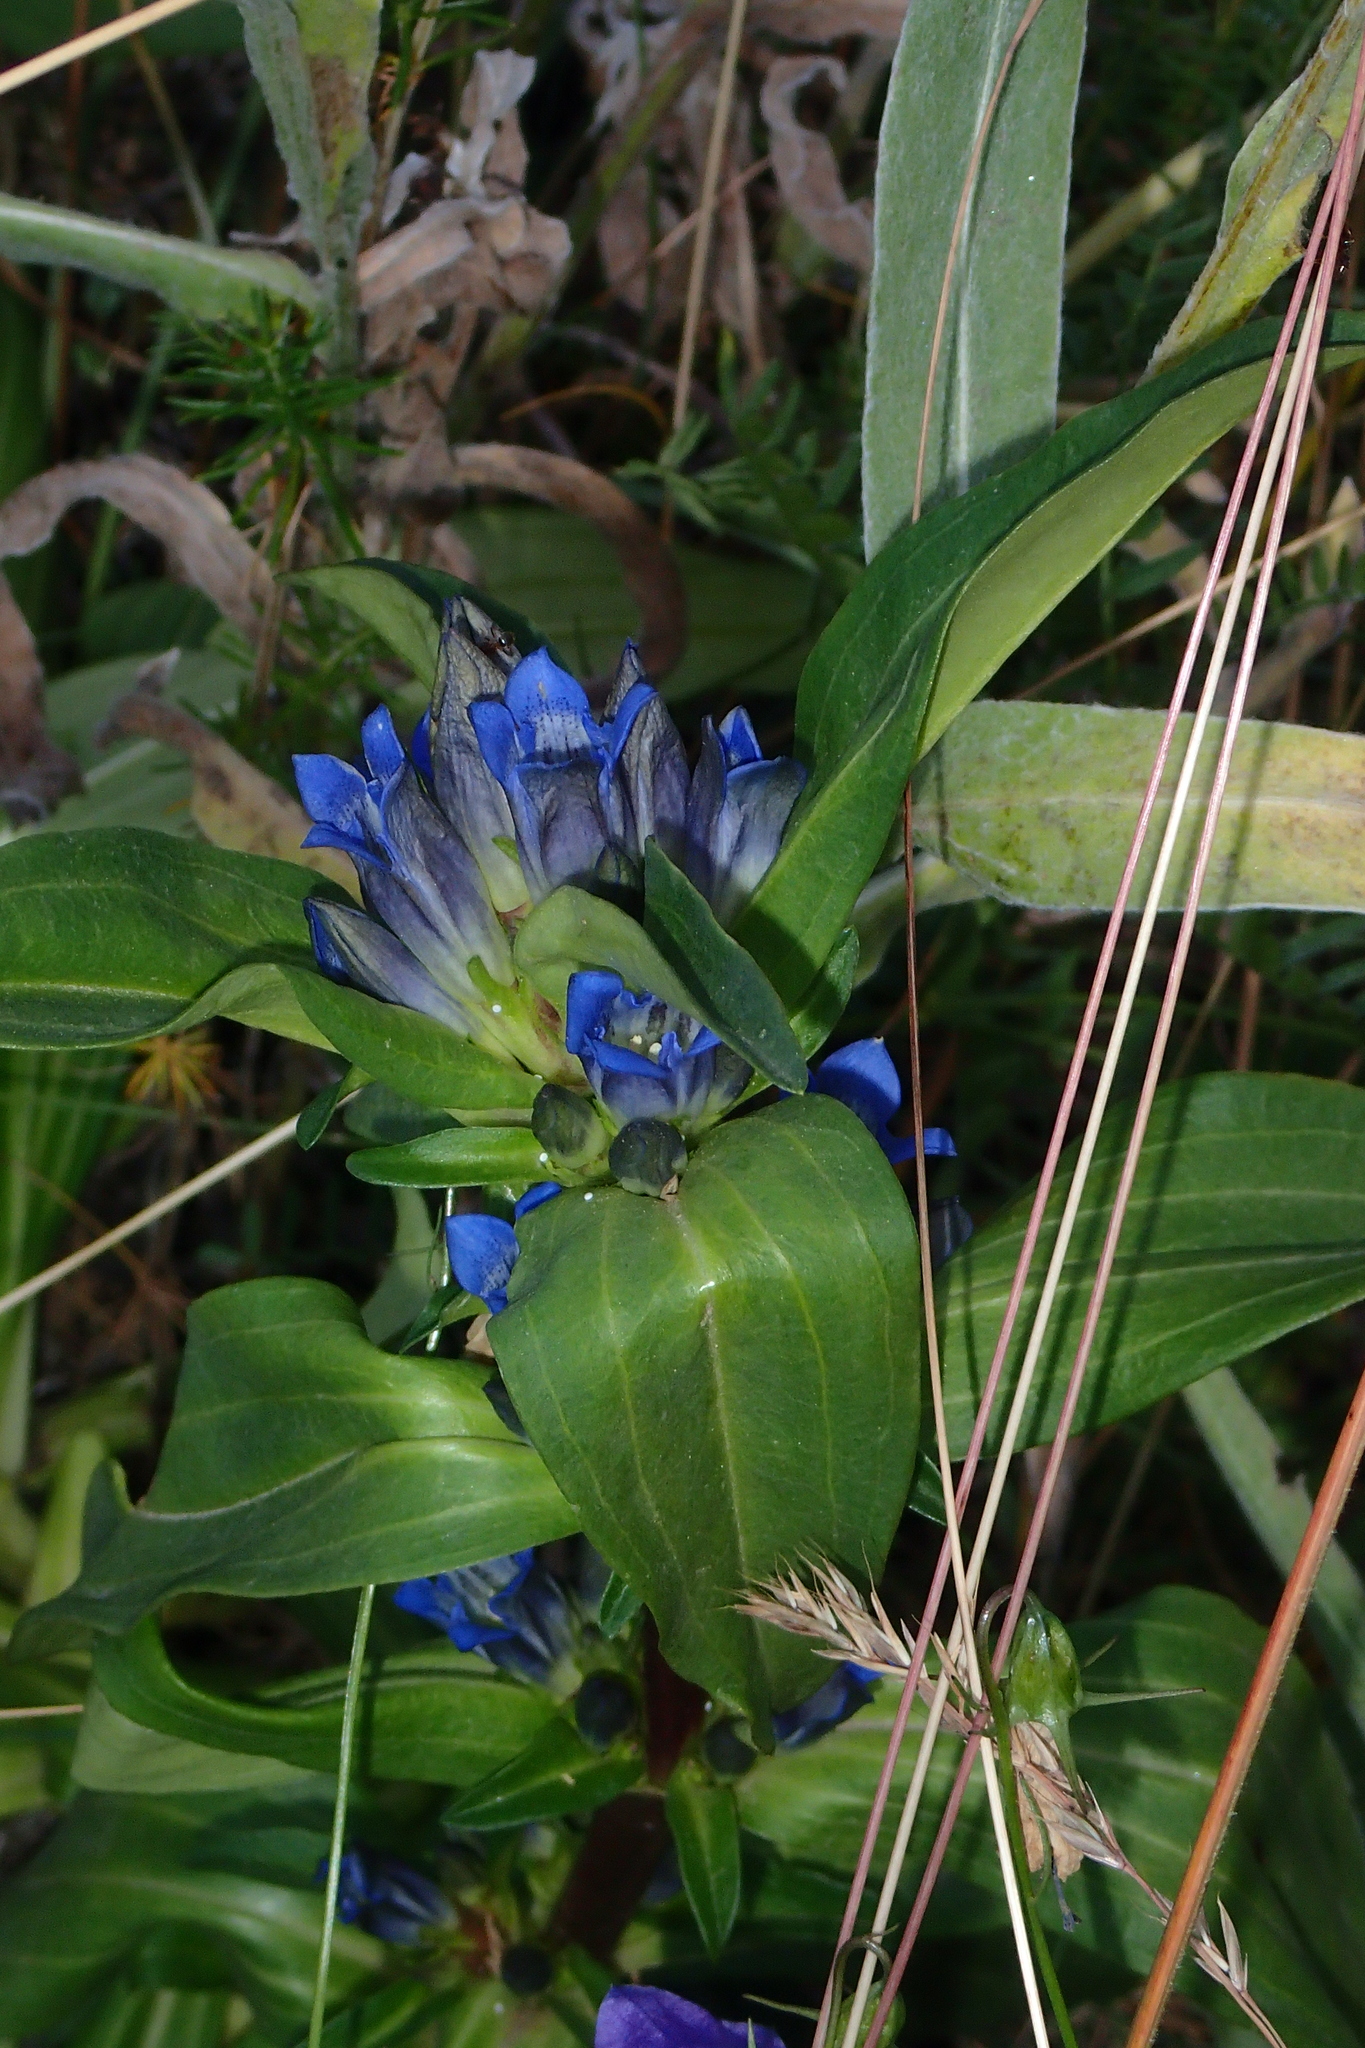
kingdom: Plantae
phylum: Tracheophyta
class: Magnoliopsida
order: Gentianales
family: Gentianaceae
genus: Gentiana
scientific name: Gentiana cruciata
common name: Cross gentian
